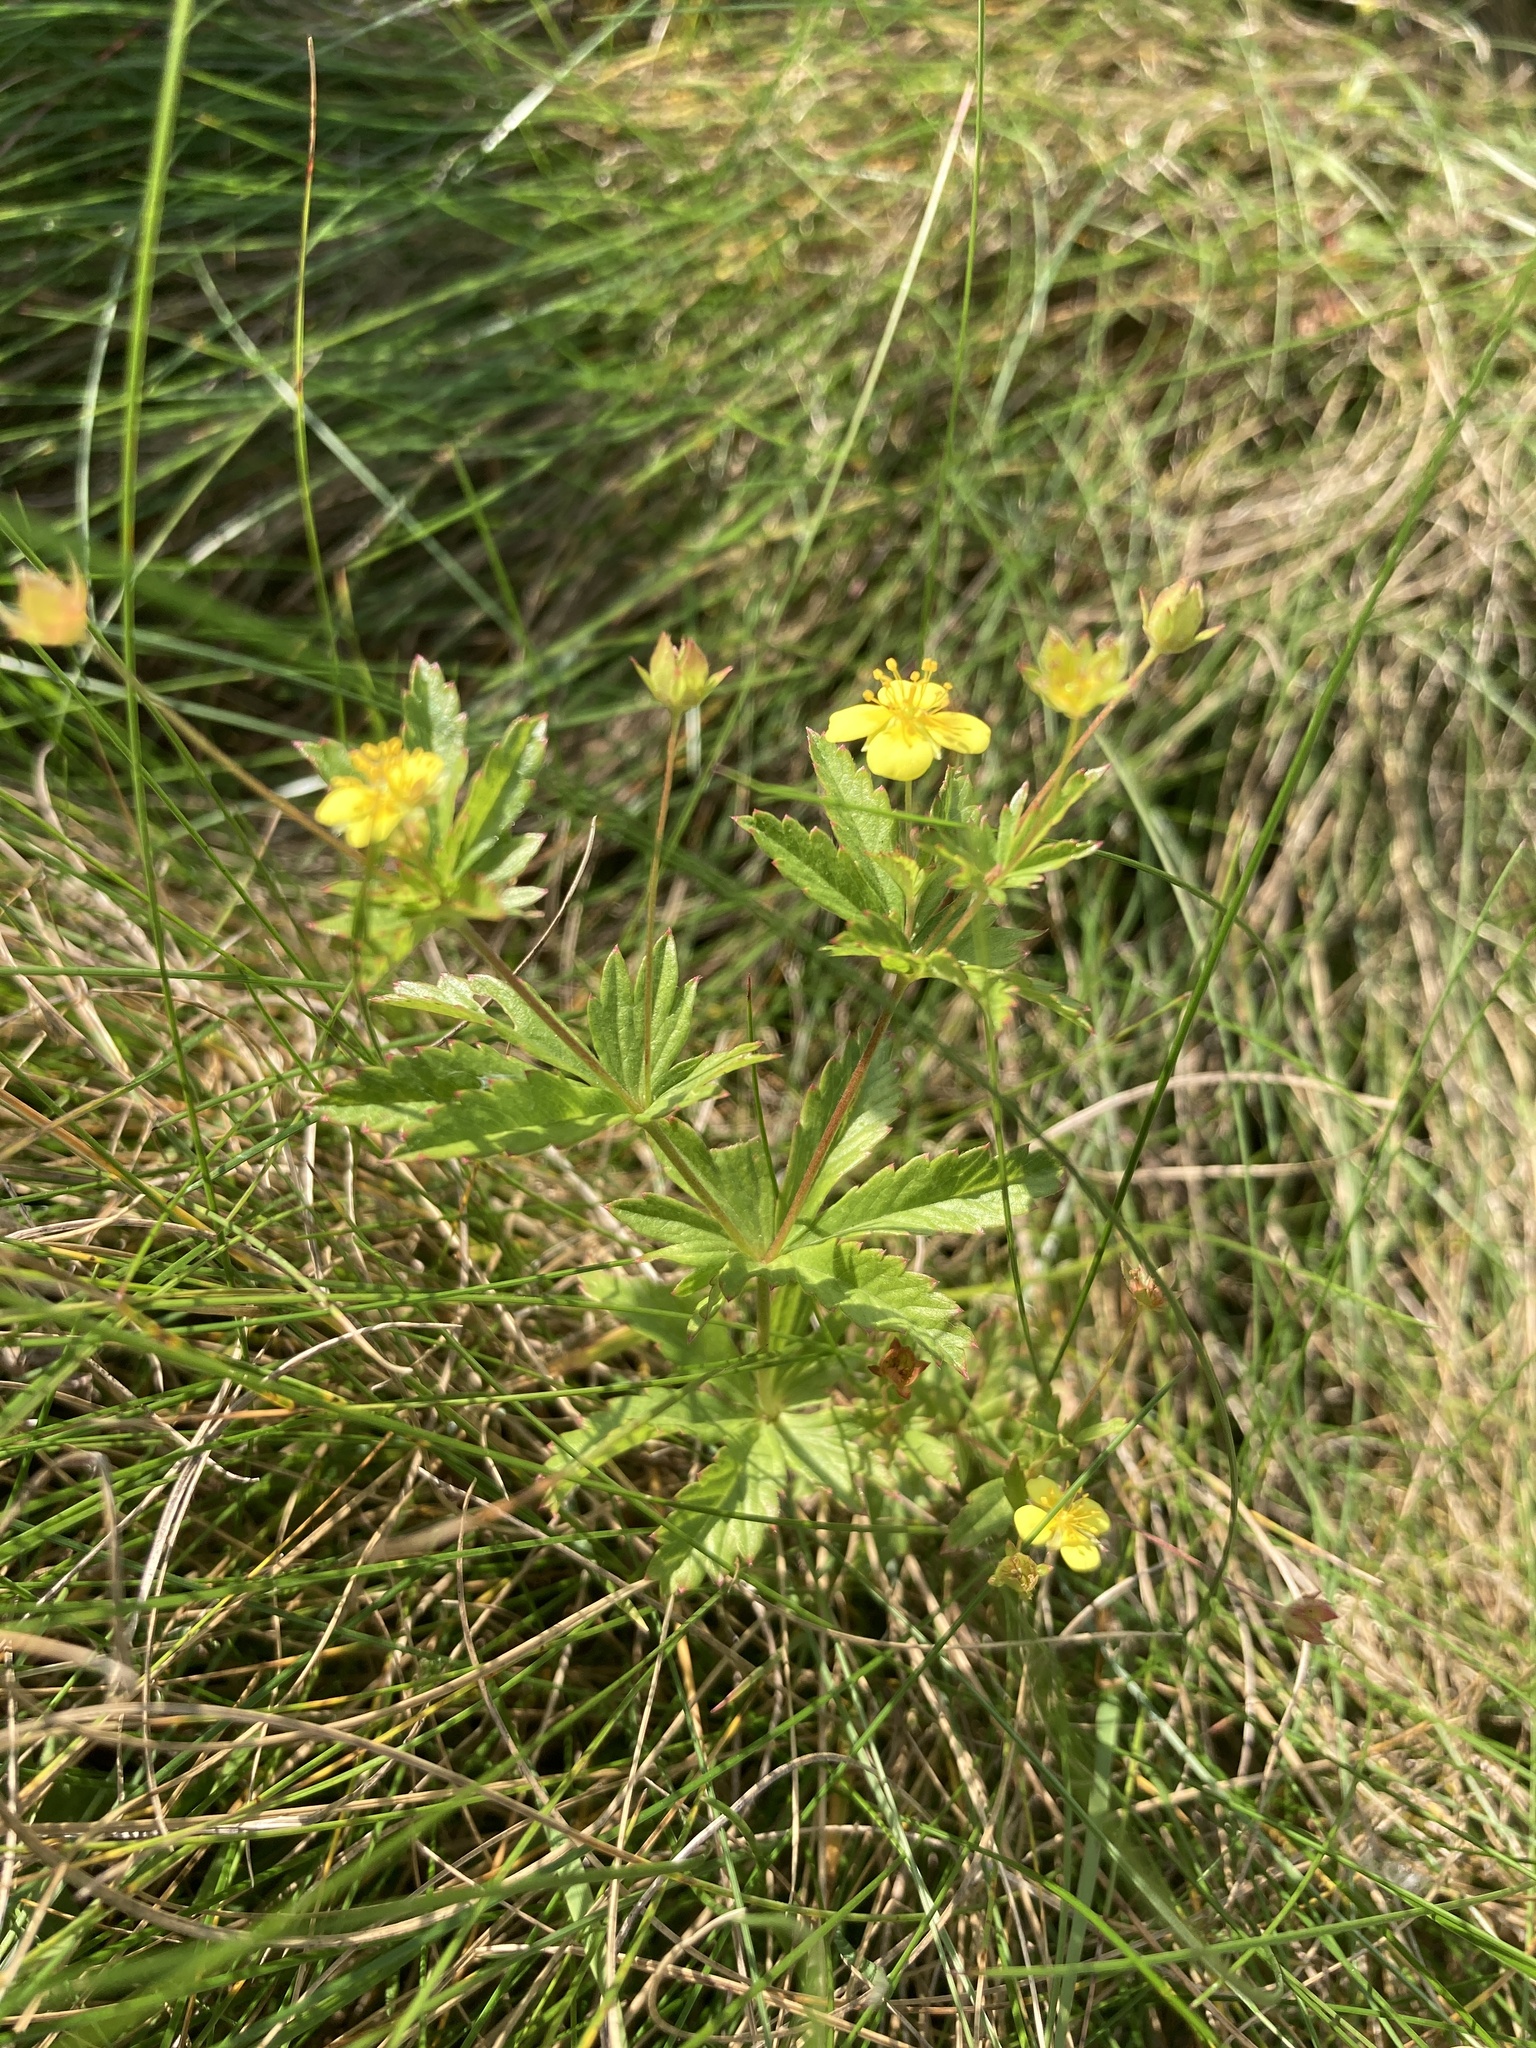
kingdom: Plantae
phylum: Tracheophyta
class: Magnoliopsida
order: Rosales
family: Rosaceae
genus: Potentilla
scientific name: Potentilla erecta
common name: Tormentil
